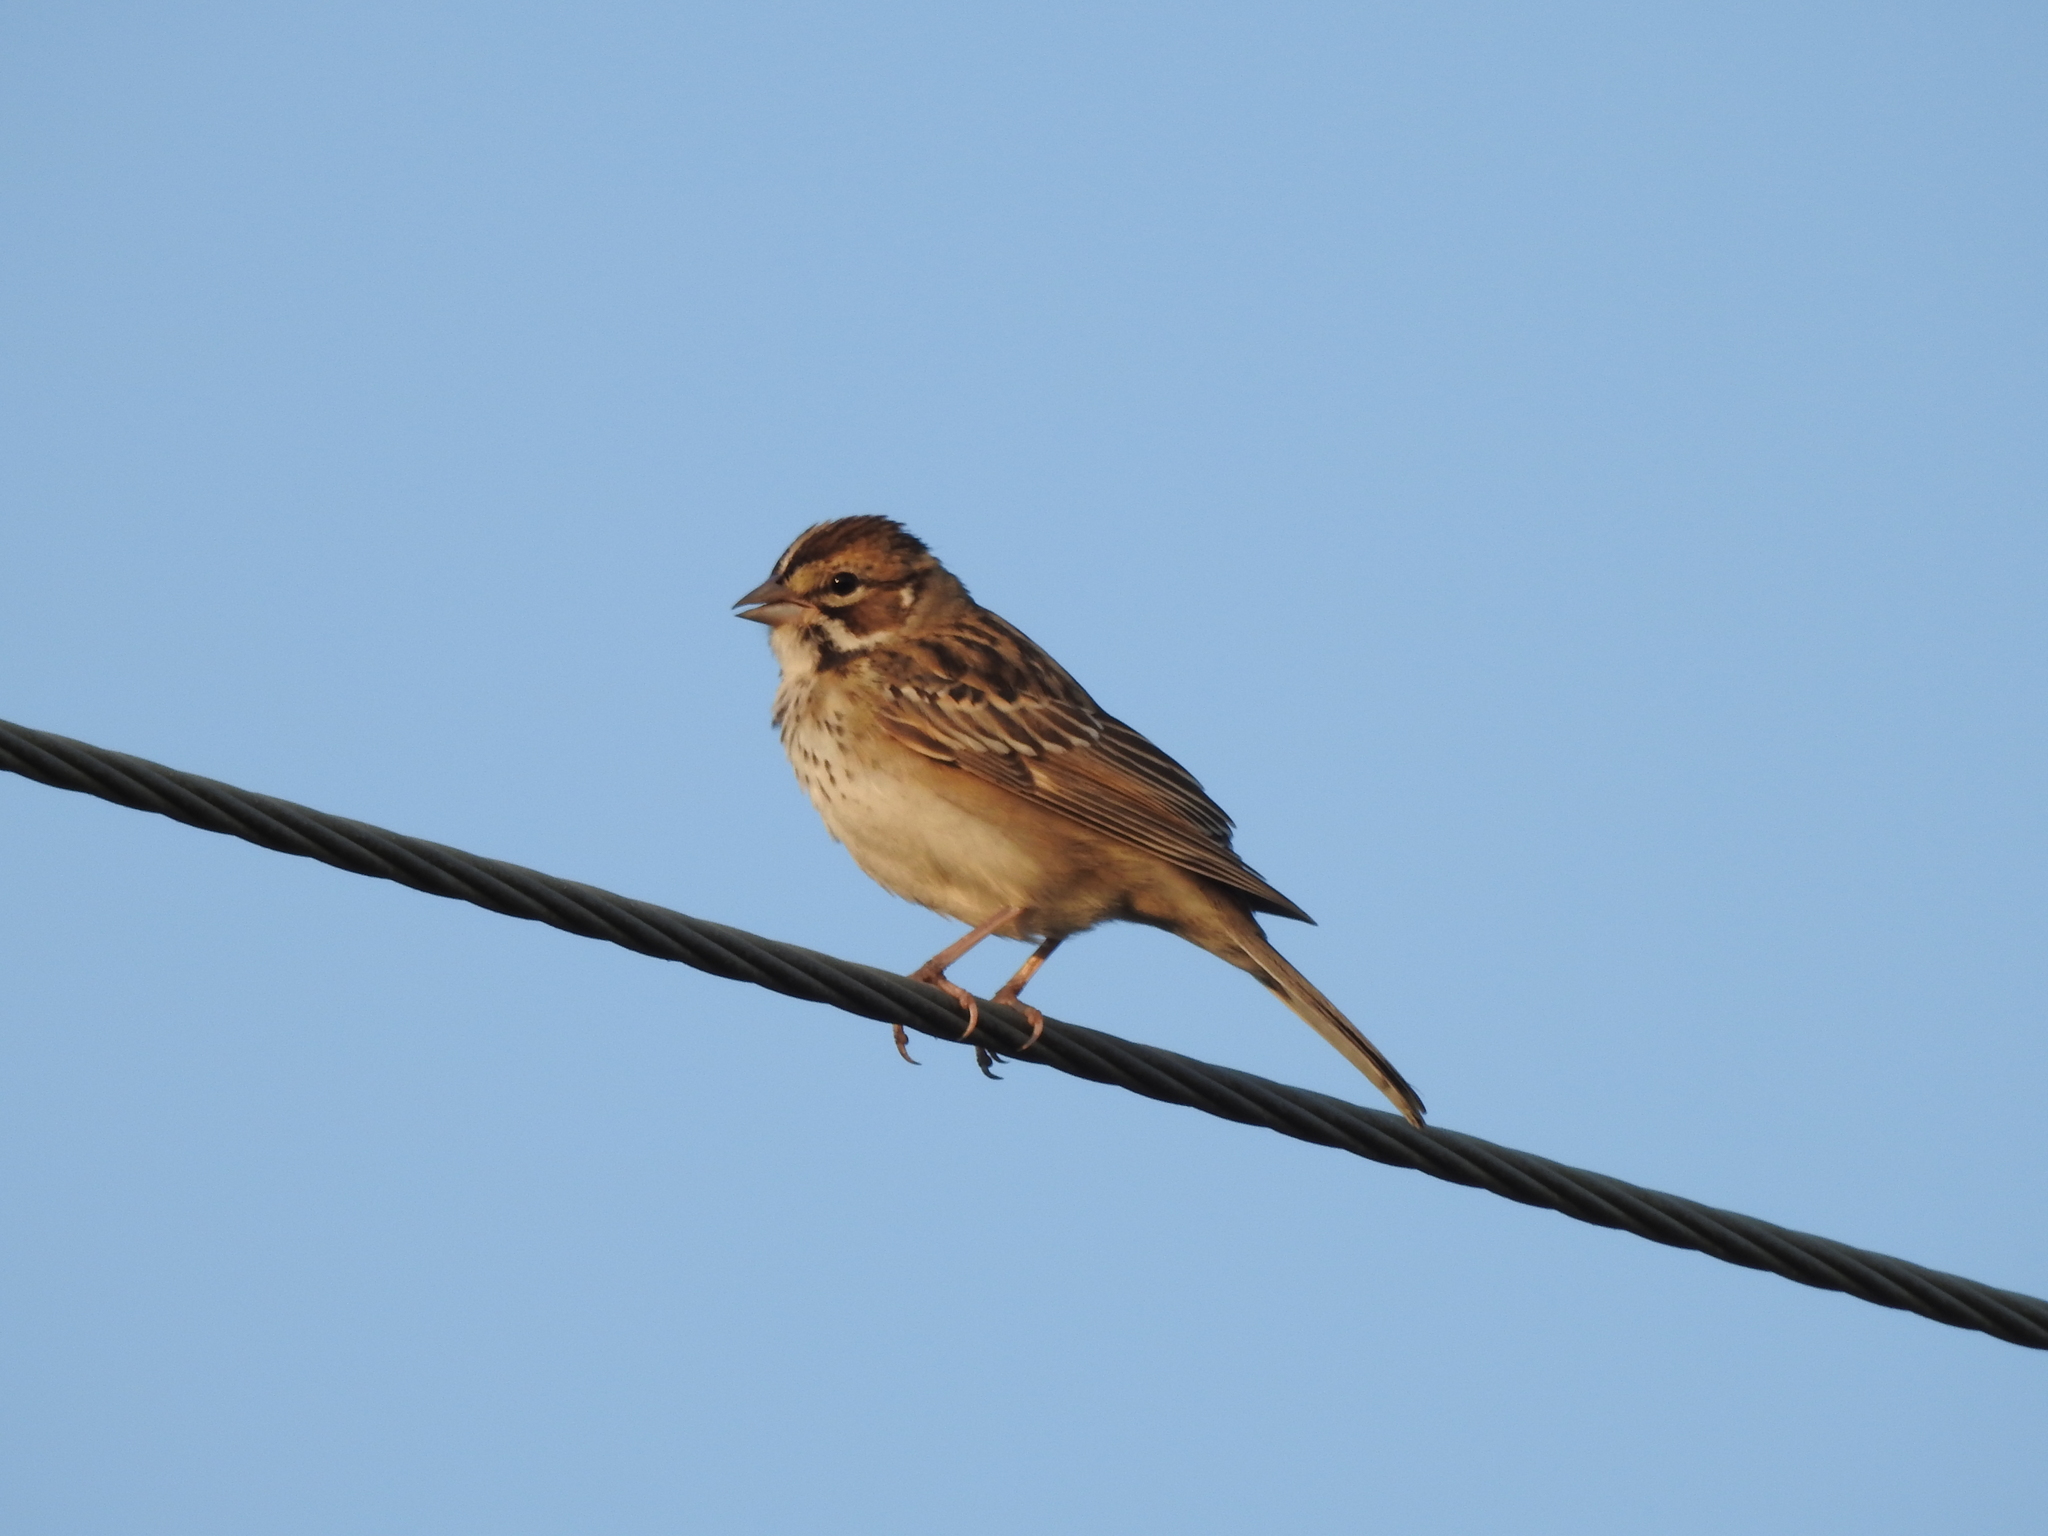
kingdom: Animalia
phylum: Chordata
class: Aves
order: Passeriformes
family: Passerellidae
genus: Chondestes
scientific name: Chondestes grammacus
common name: Lark sparrow
